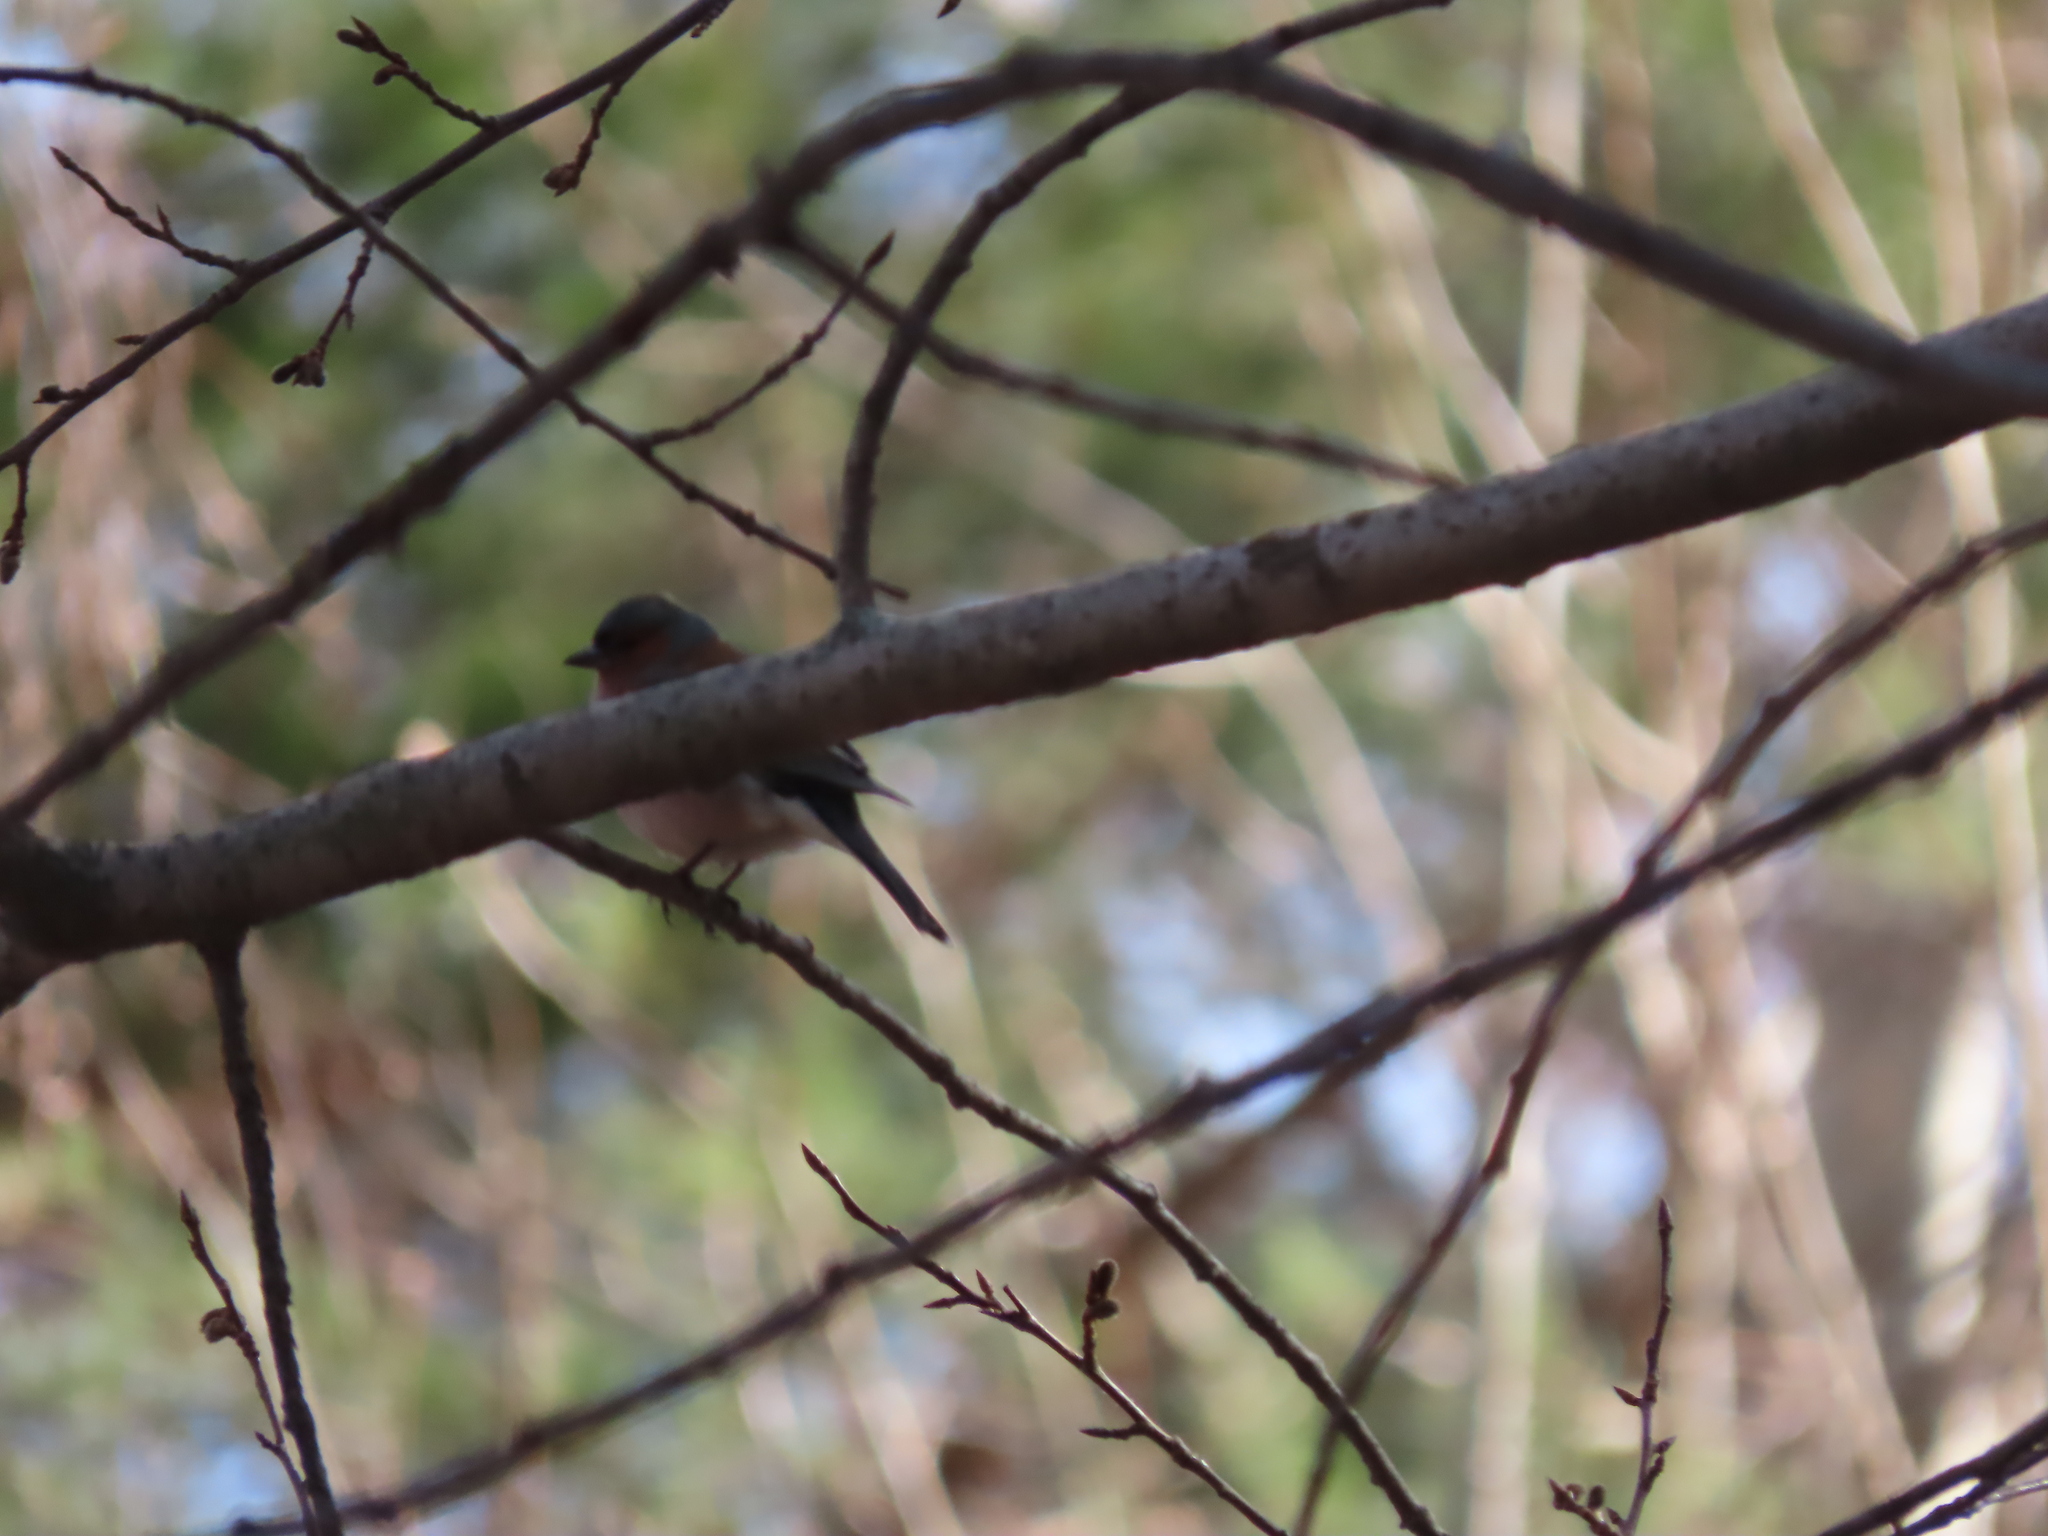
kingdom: Animalia
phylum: Chordata
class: Aves
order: Passeriformes
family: Fringillidae
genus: Fringilla
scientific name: Fringilla coelebs
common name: Common chaffinch
